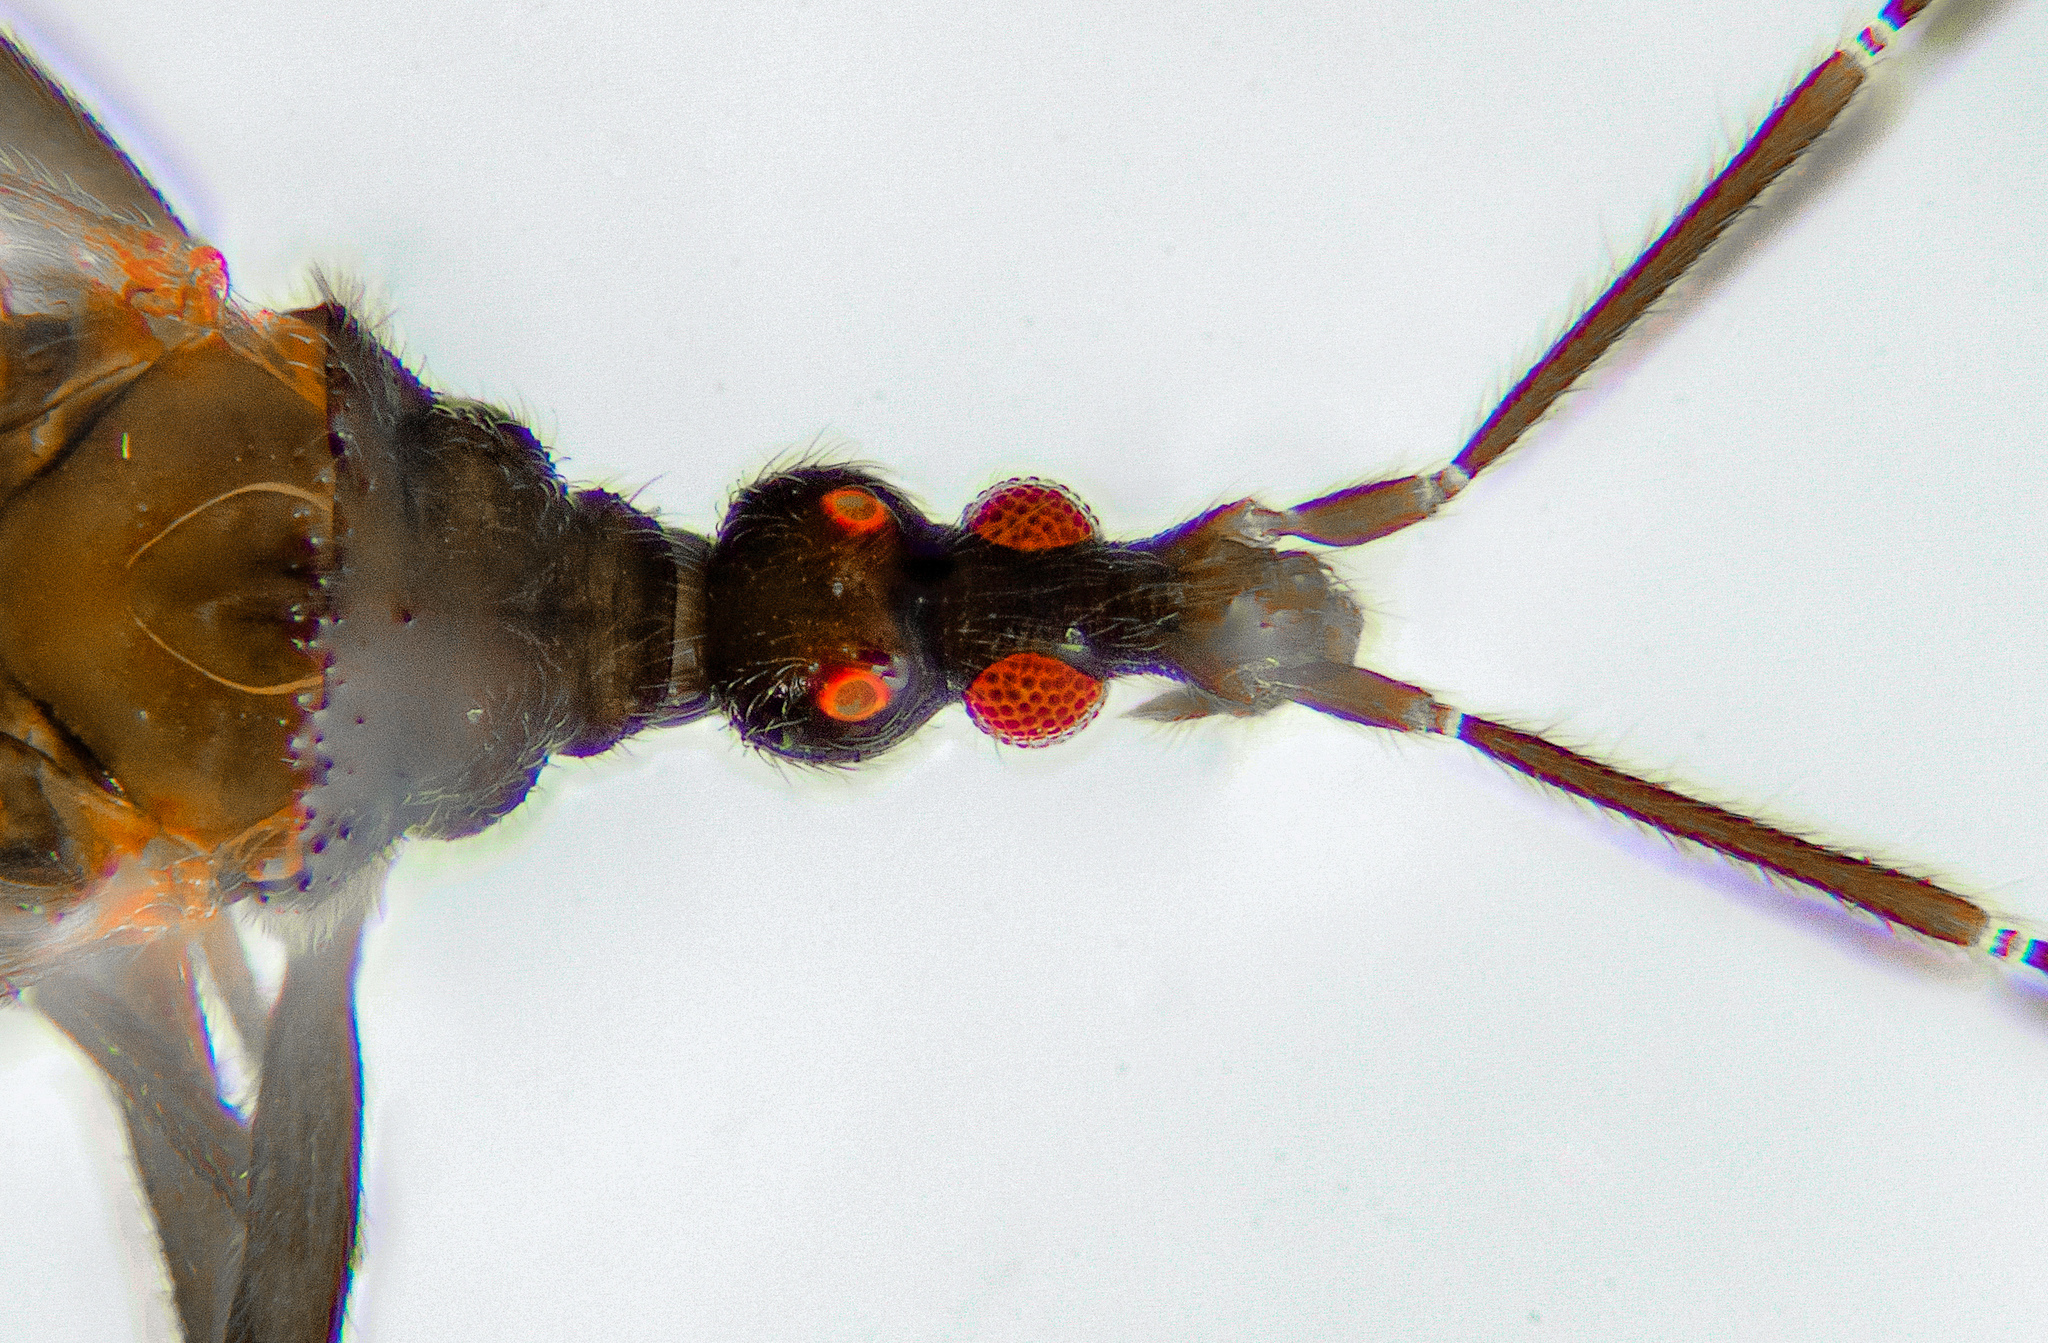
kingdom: Animalia
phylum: Arthropoda
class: Insecta
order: Hemiptera
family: Enicocephalidae
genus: Hymenocoris
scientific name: Hymenocoris formicinus
